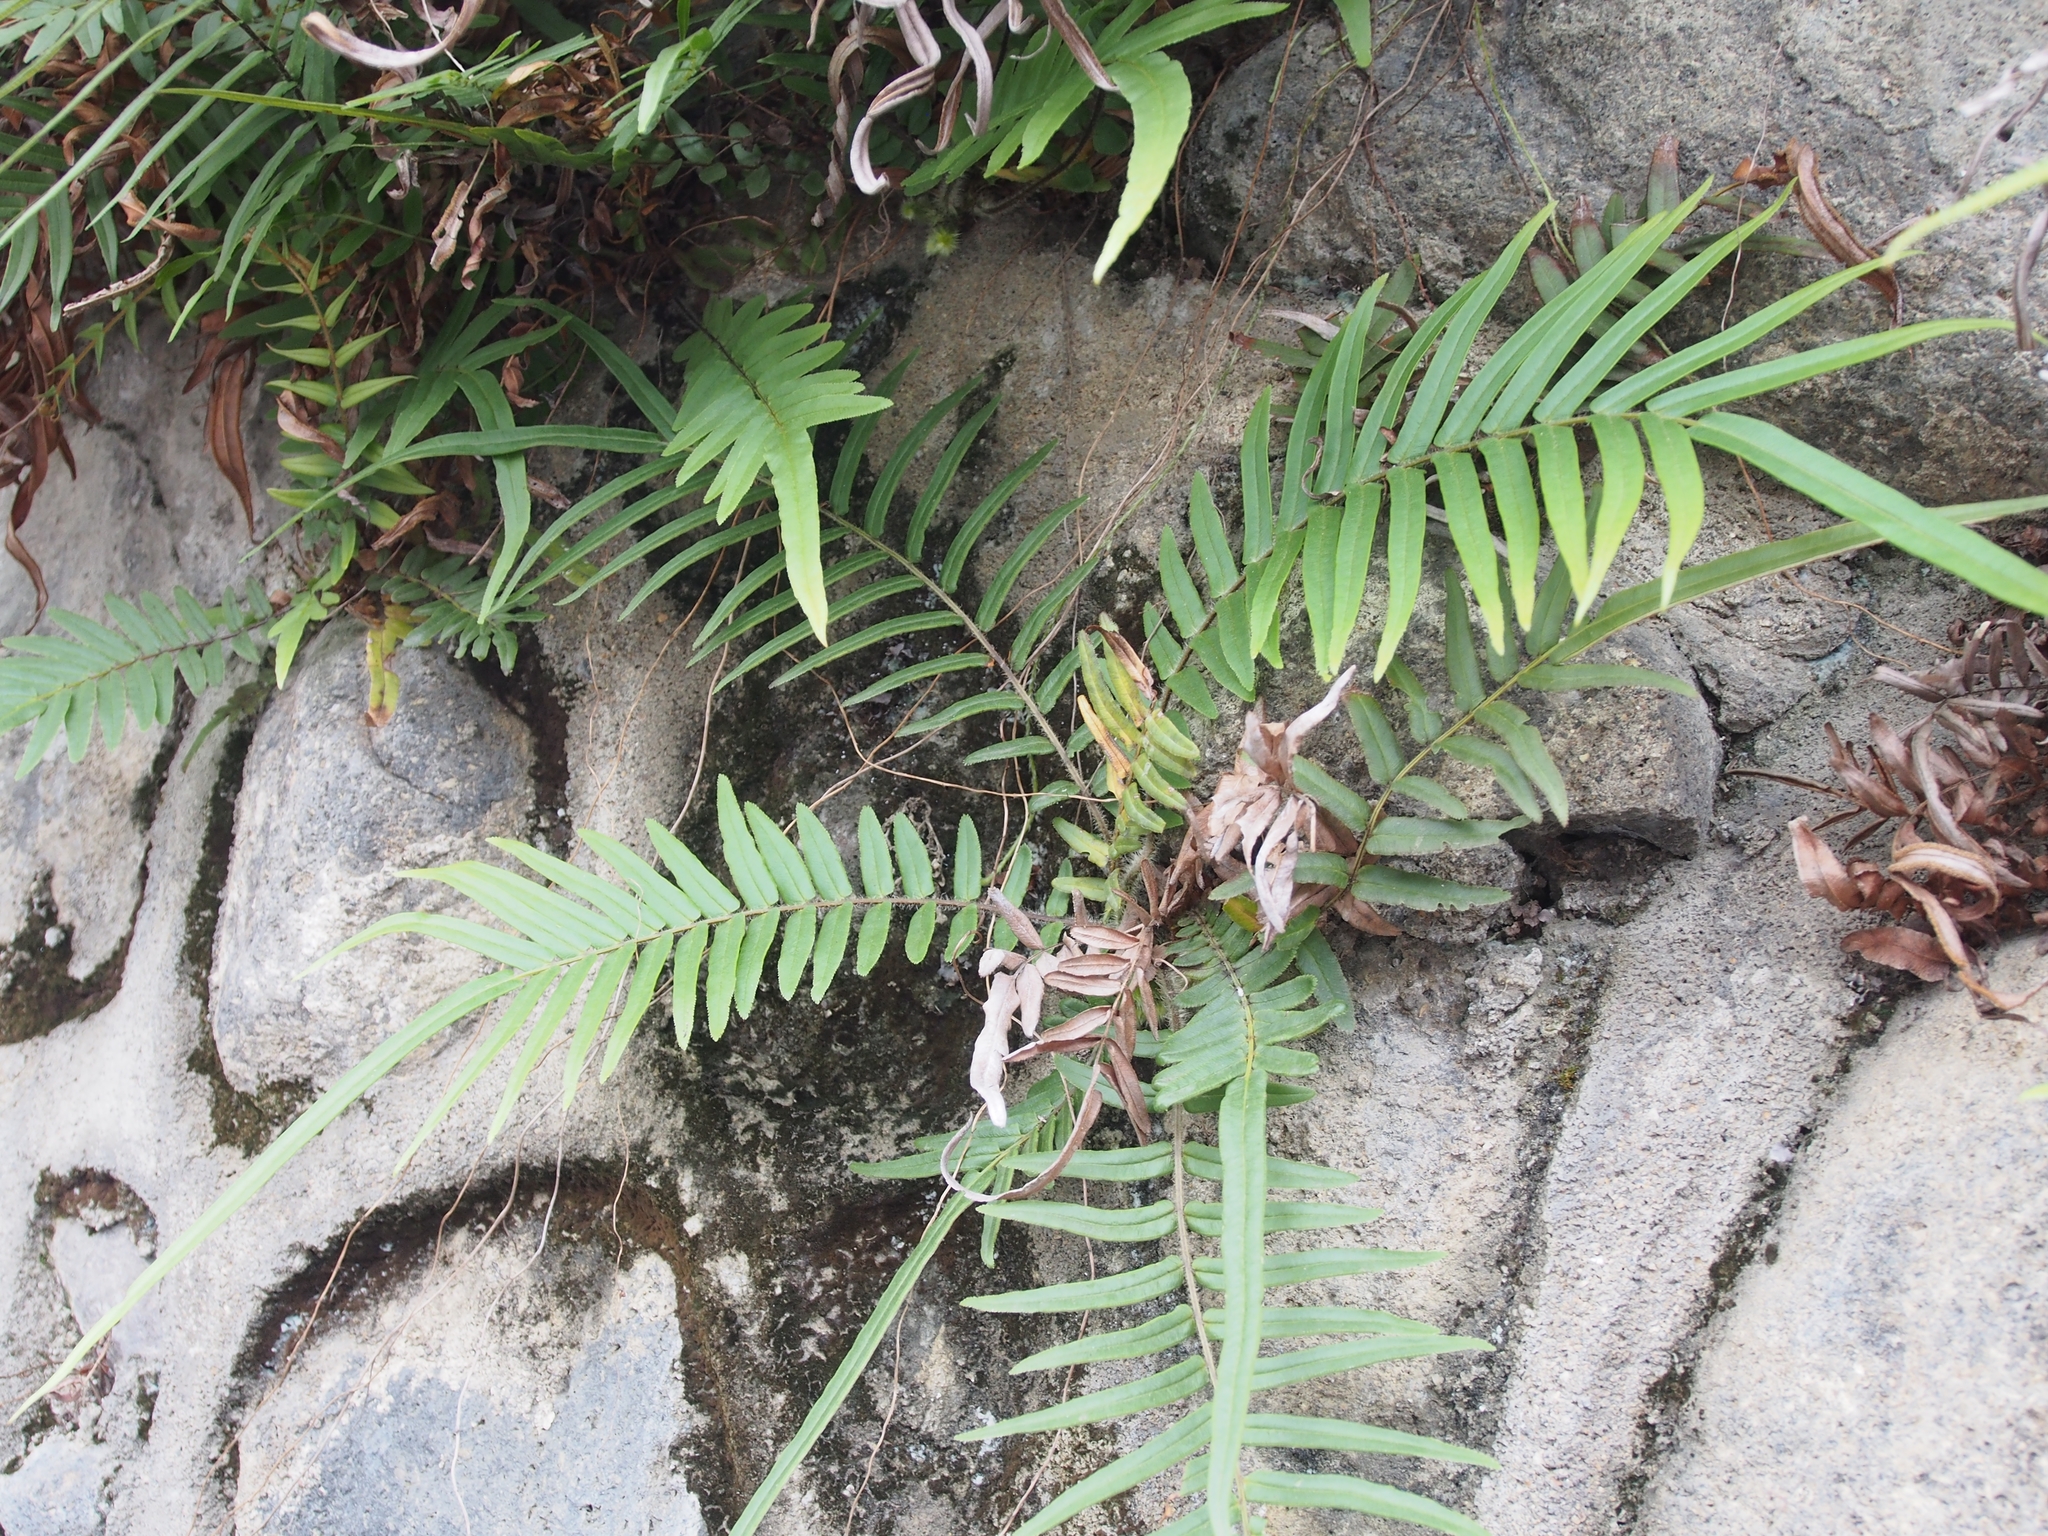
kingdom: Plantae
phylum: Tracheophyta
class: Polypodiopsida
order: Polypodiales
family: Pteridaceae
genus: Pteris
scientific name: Pteris vittata
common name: Ladder brake
